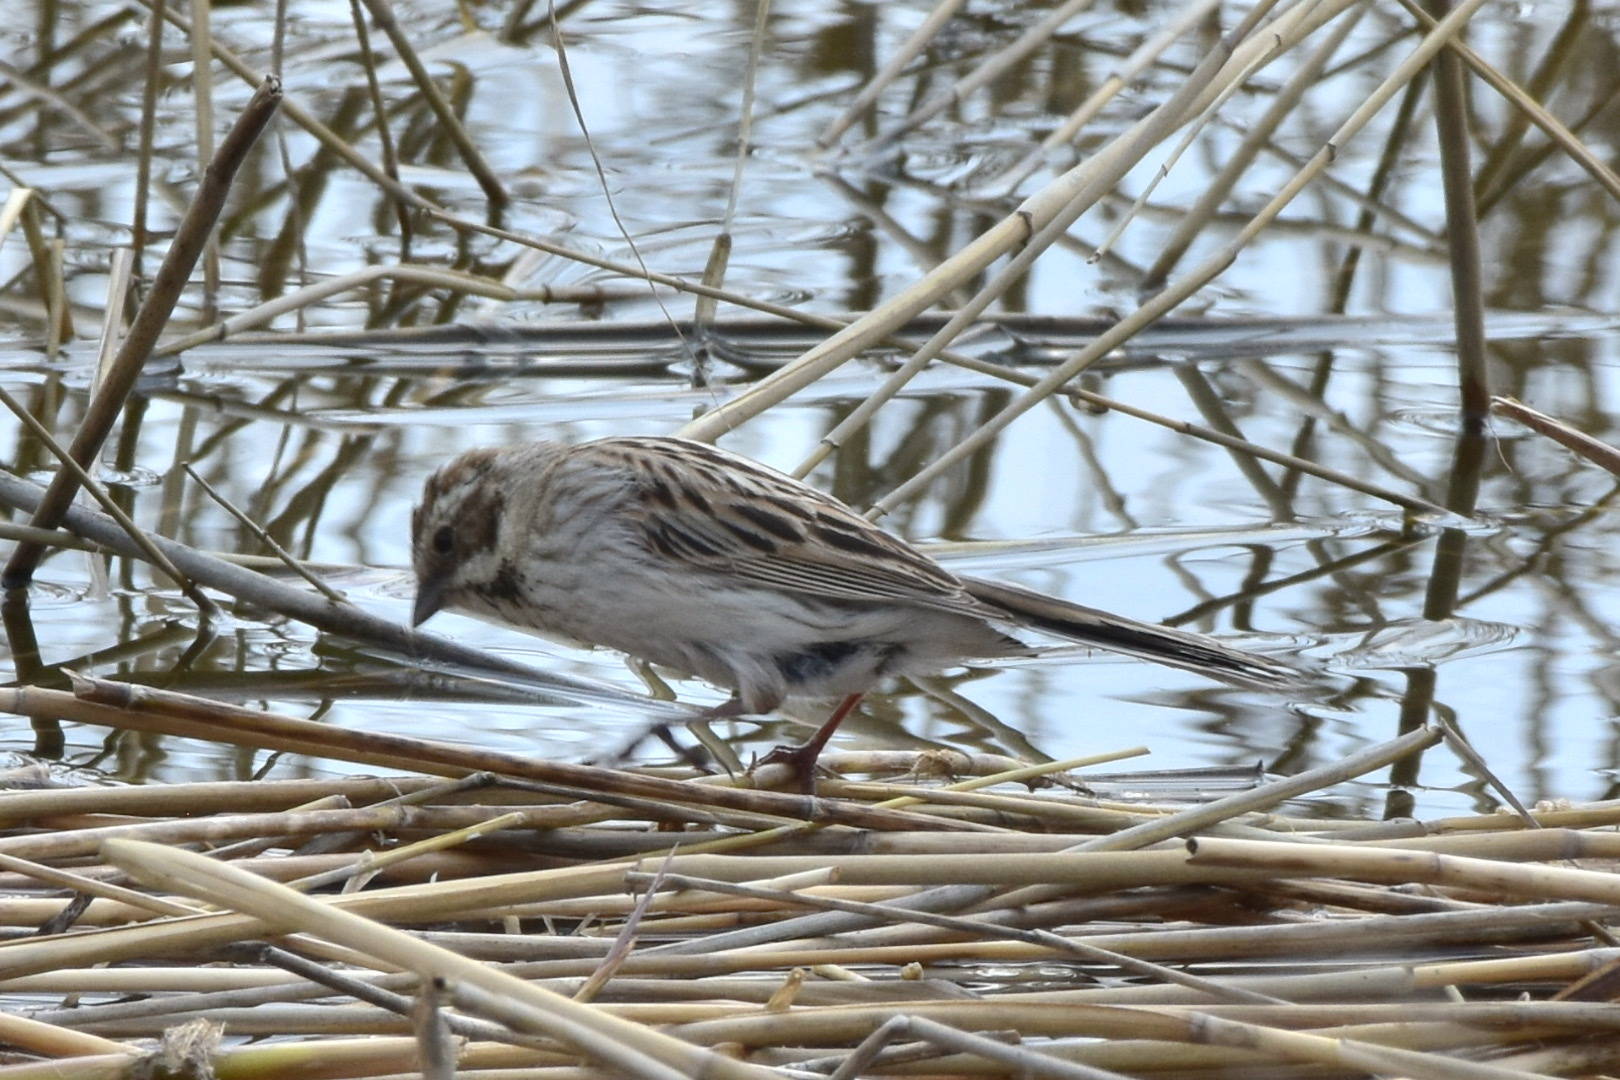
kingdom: Animalia
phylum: Chordata
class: Aves
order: Passeriformes
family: Emberizidae
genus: Emberiza
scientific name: Emberiza schoeniclus
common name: Reed bunting
